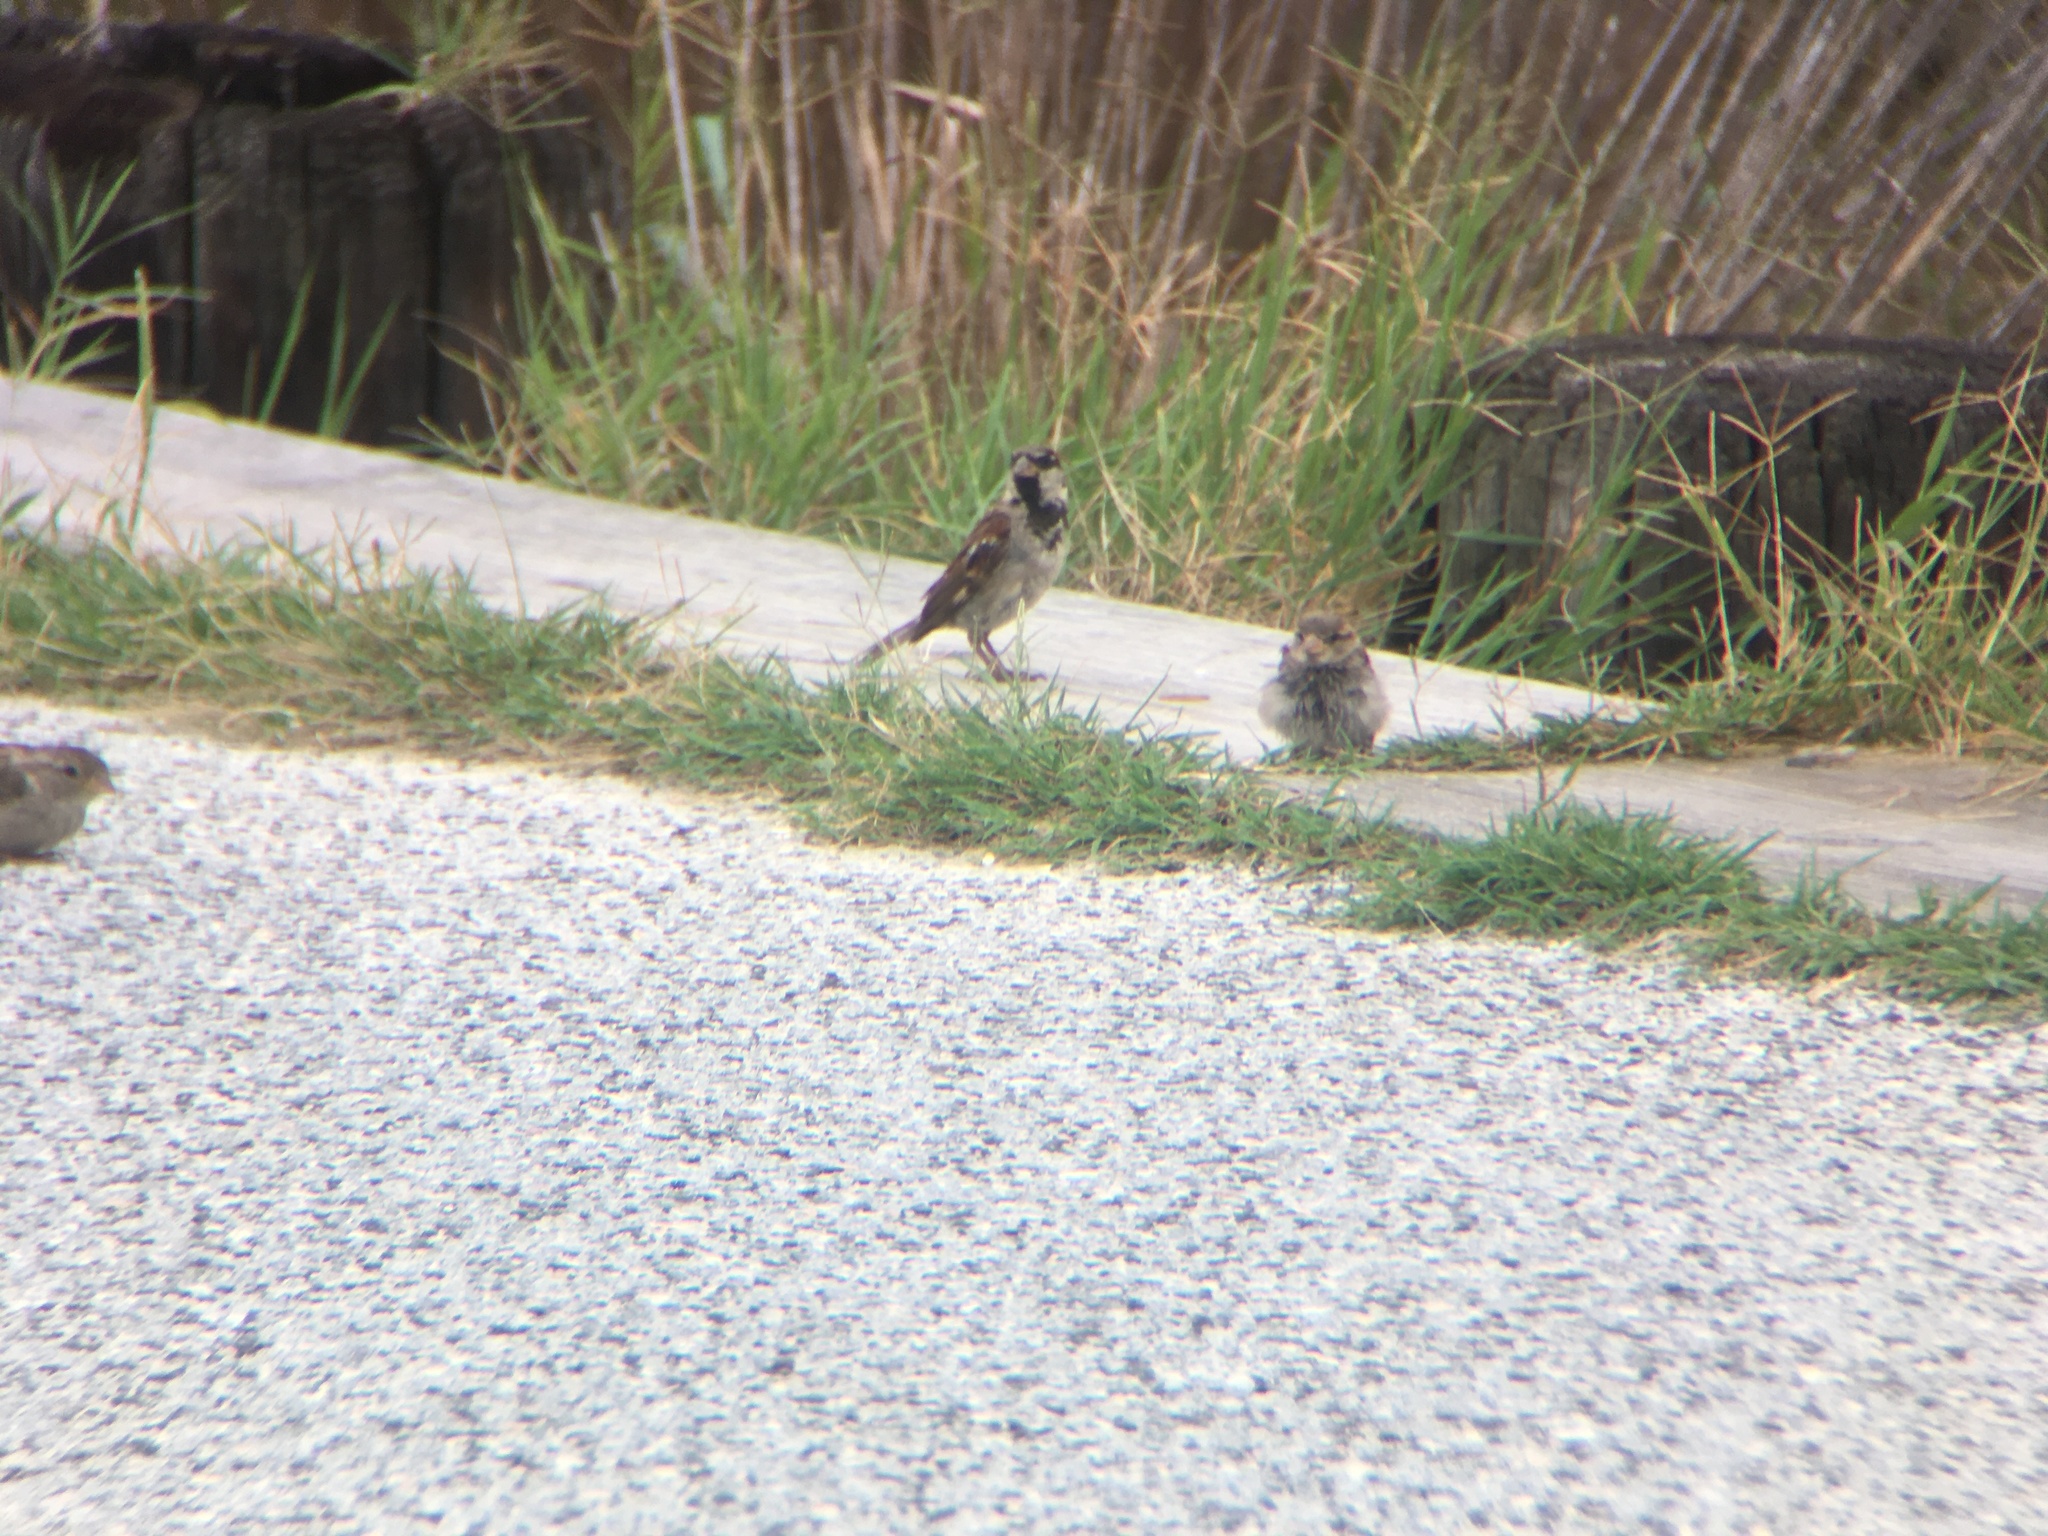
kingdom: Animalia
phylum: Chordata
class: Aves
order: Passeriformes
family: Passeridae
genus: Passer
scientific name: Passer domesticus
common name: House sparrow
